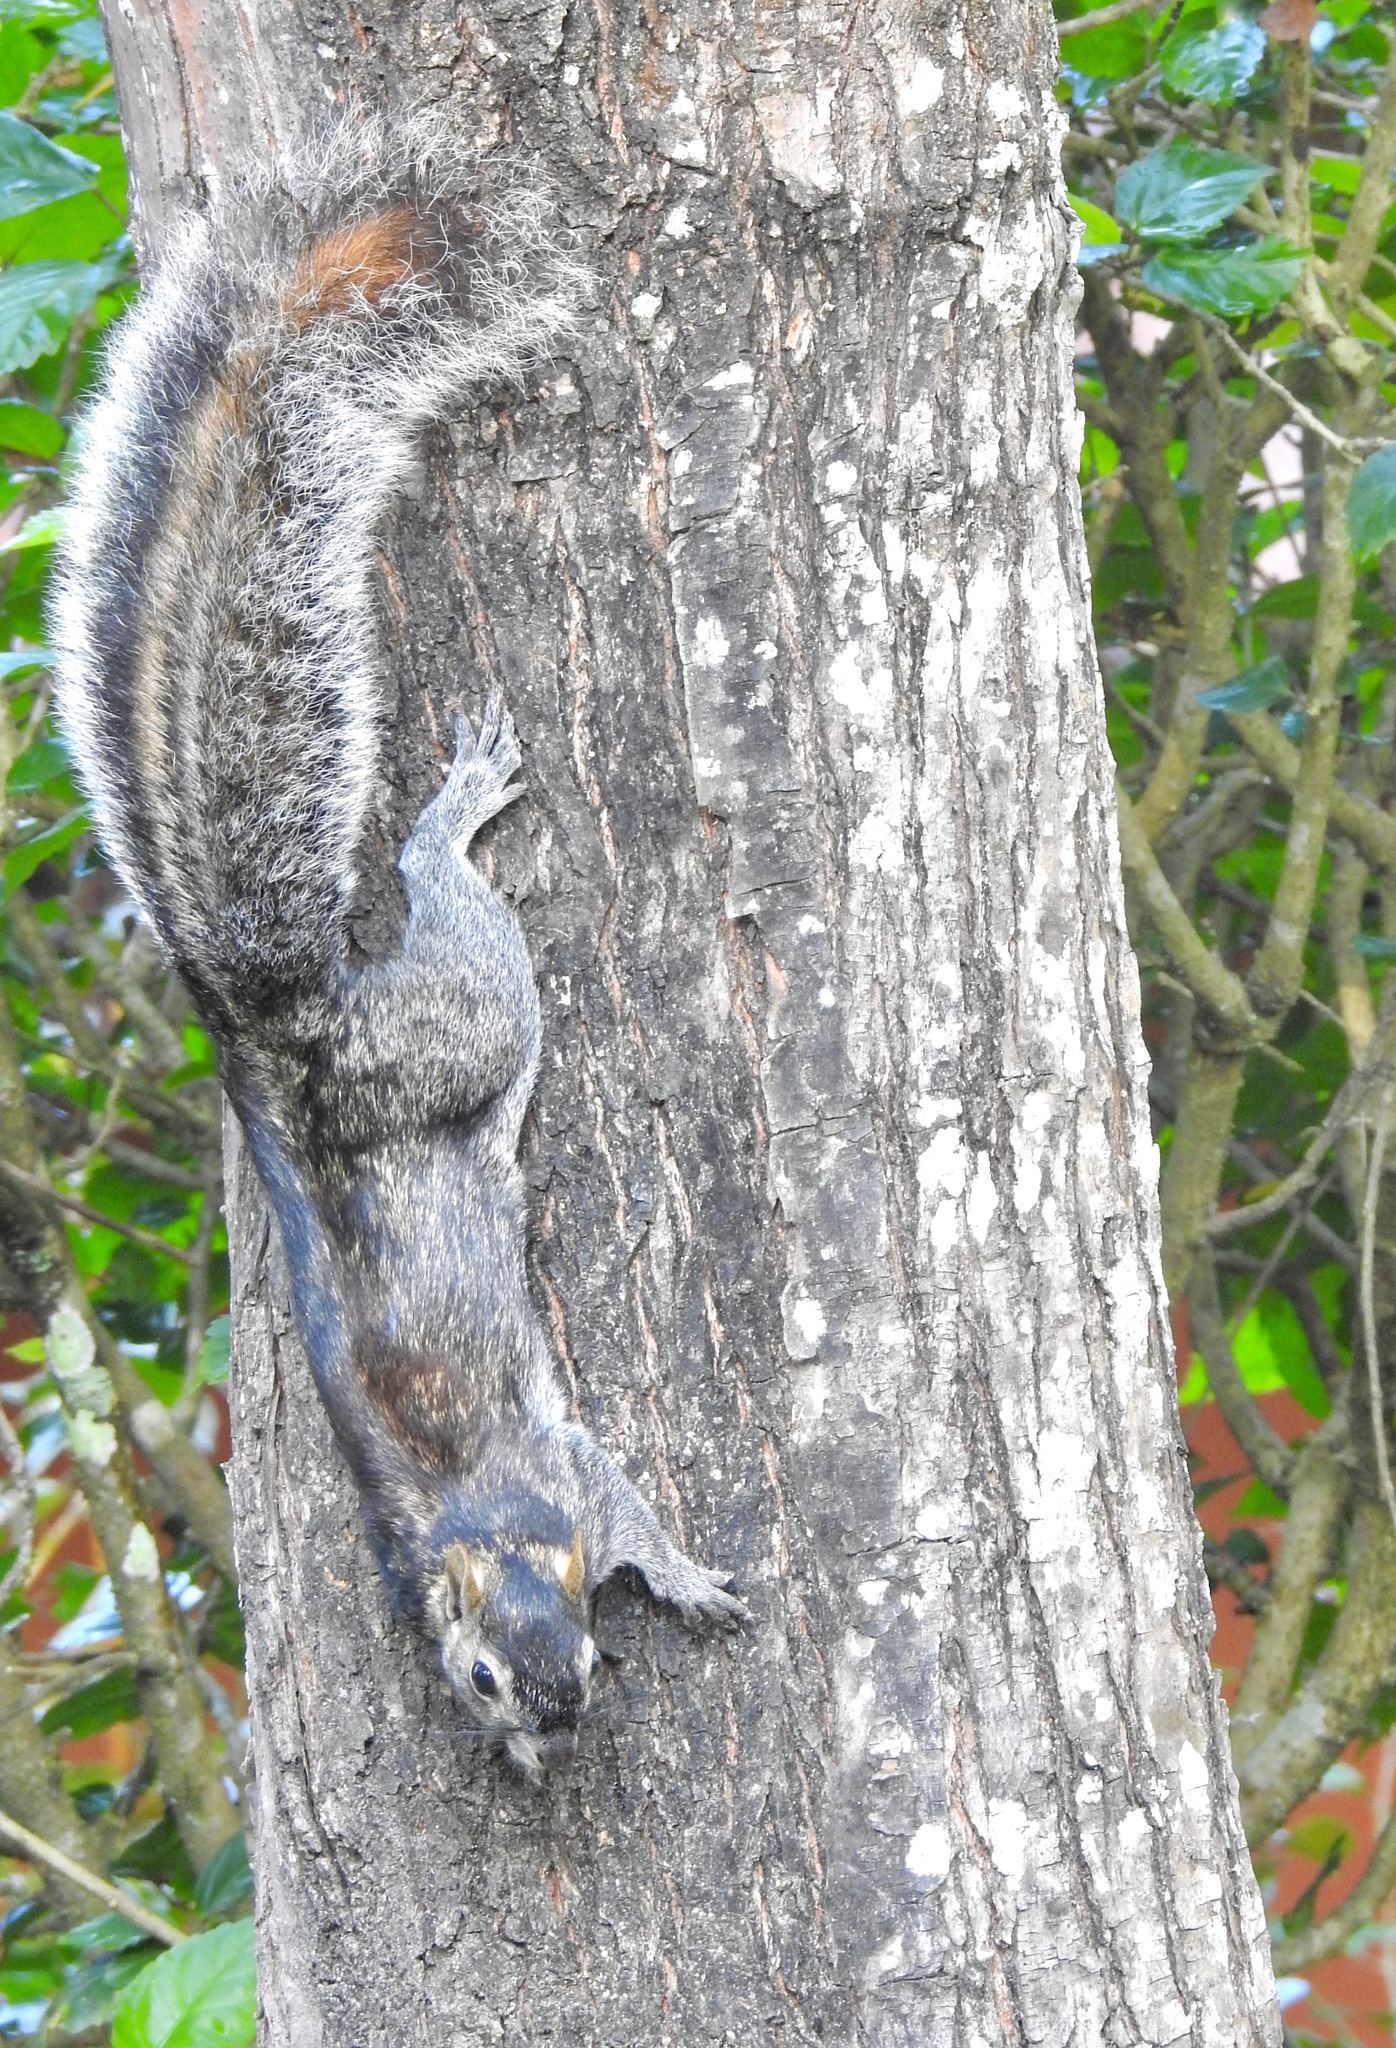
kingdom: Animalia
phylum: Chordata
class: Mammalia
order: Rodentia
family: Sciuridae
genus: Sciurus
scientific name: Sciurus colliaei
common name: Collie's squirrel
